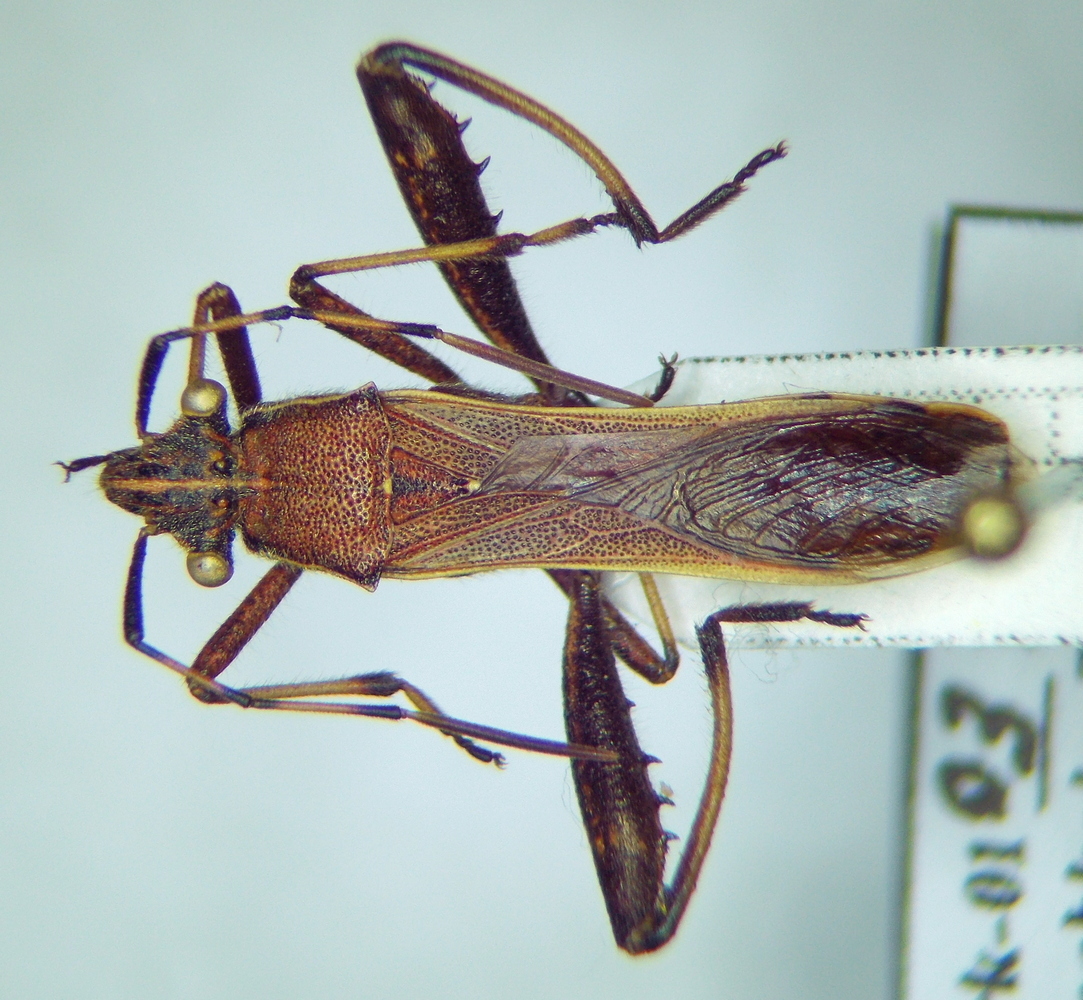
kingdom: Animalia
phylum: Arthropoda
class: Insecta
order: Hemiptera
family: Alydidae
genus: Camptopus
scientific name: Camptopus lateralis
